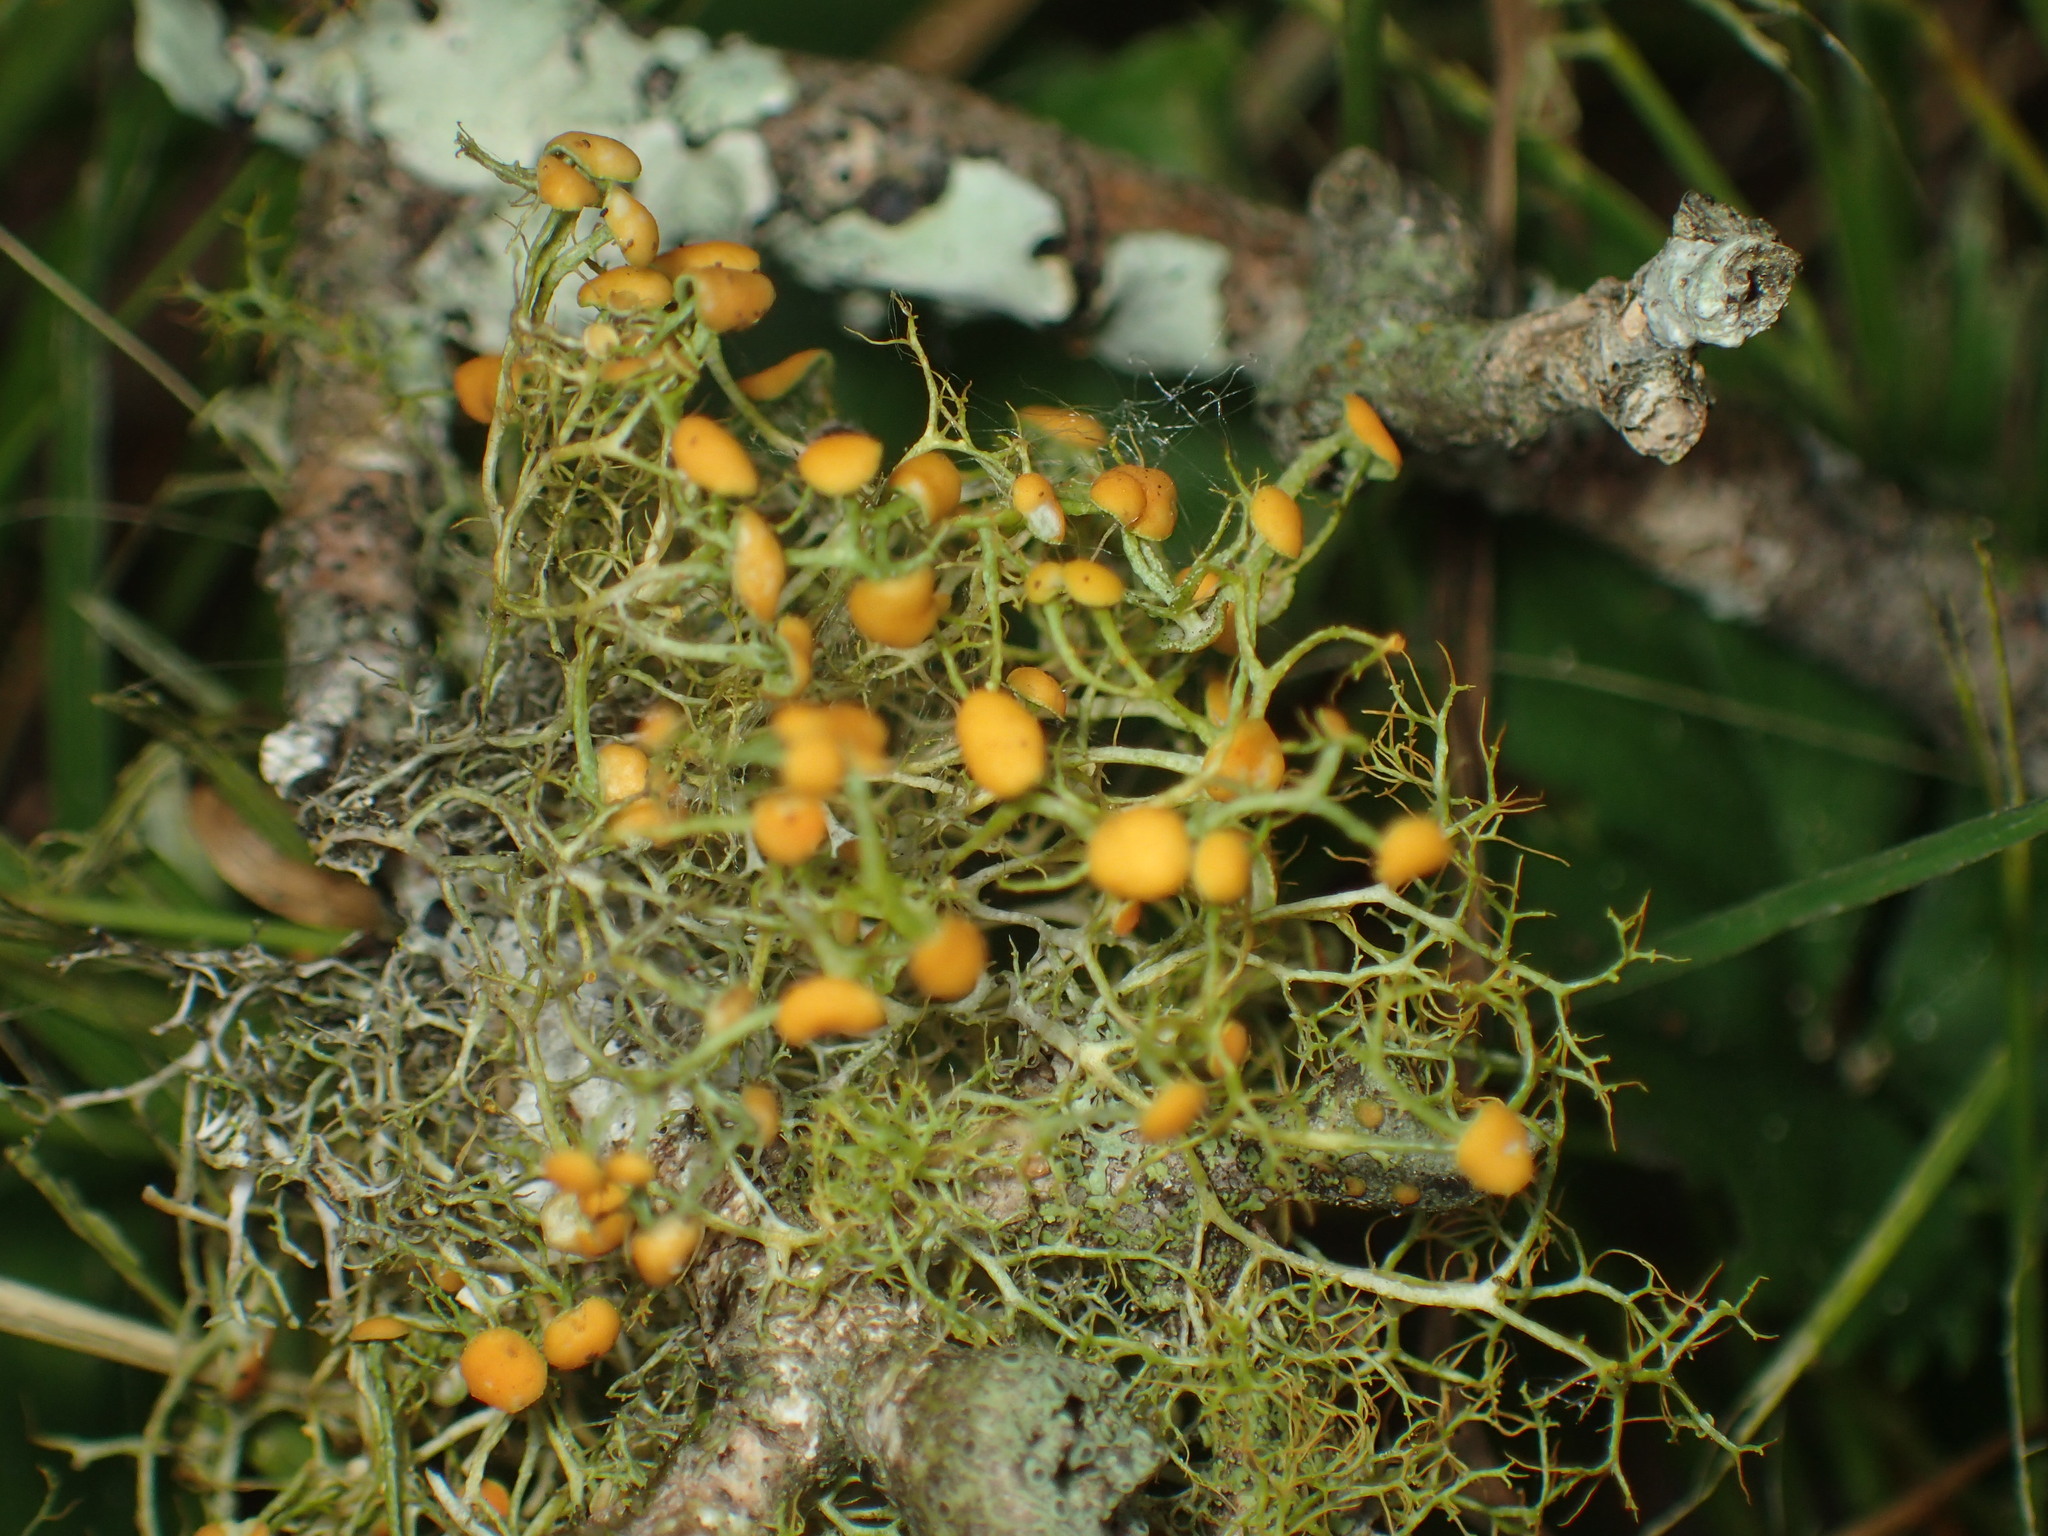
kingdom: Fungi
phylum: Ascomycota
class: Lecanoromycetes
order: Teloschistales
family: Teloschistaceae
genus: Teloschistes
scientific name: Teloschistes exilis
